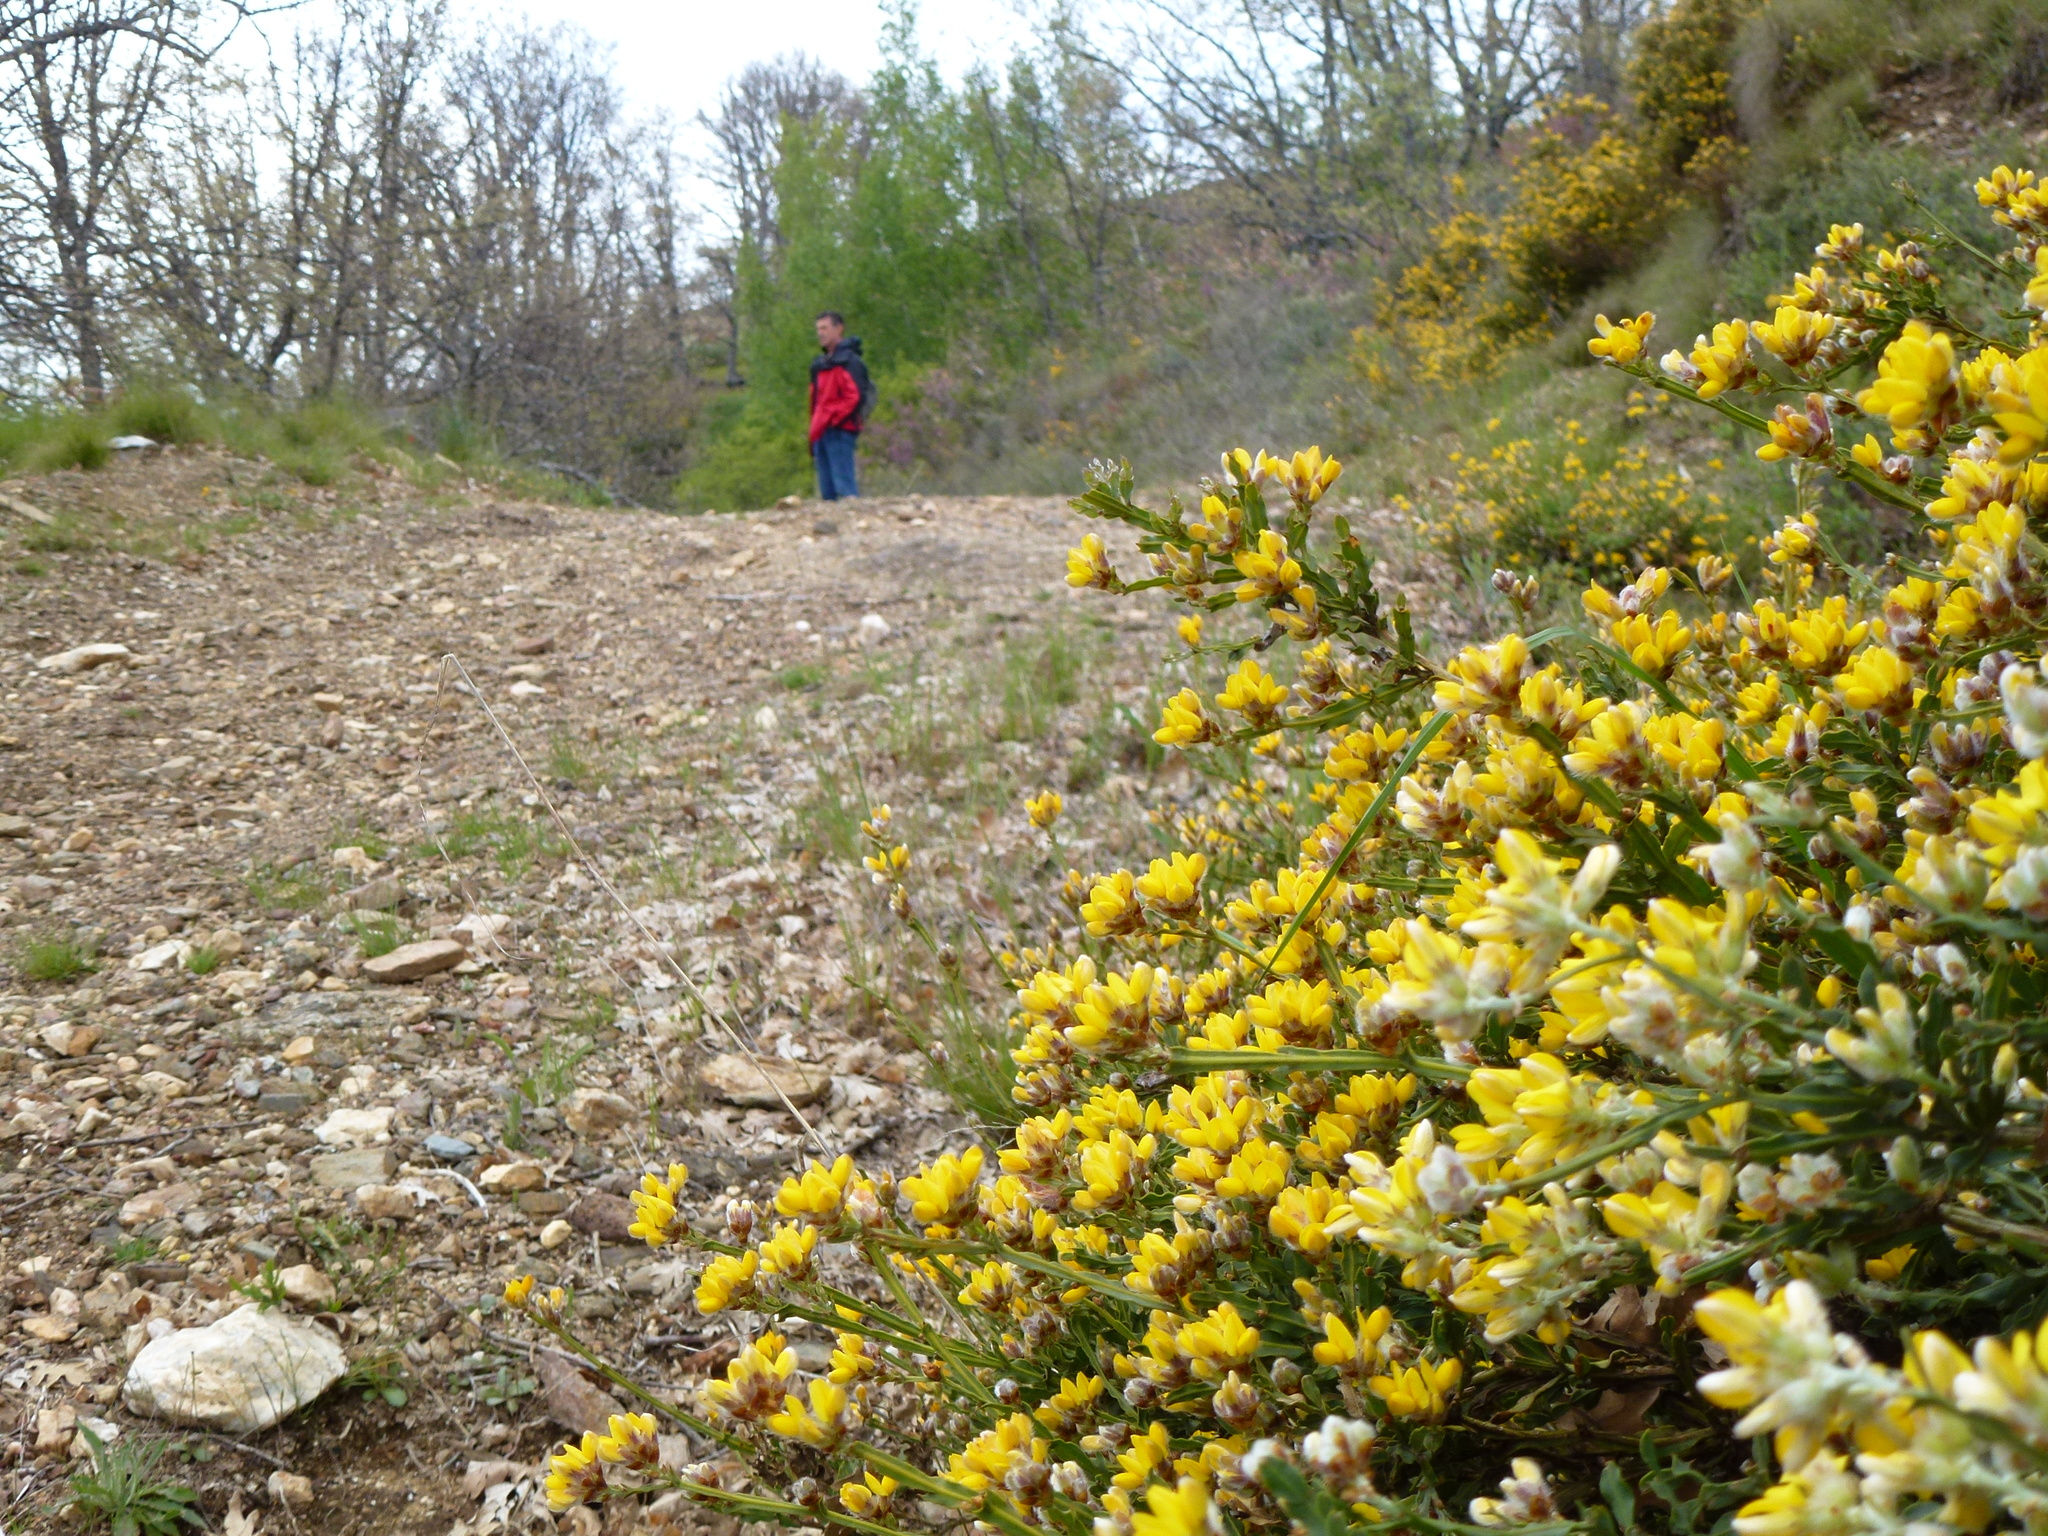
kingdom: Plantae
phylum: Tracheophyta
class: Magnoliopsida
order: Fabales
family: Fabaceae
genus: Genista
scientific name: Genista tridentata
